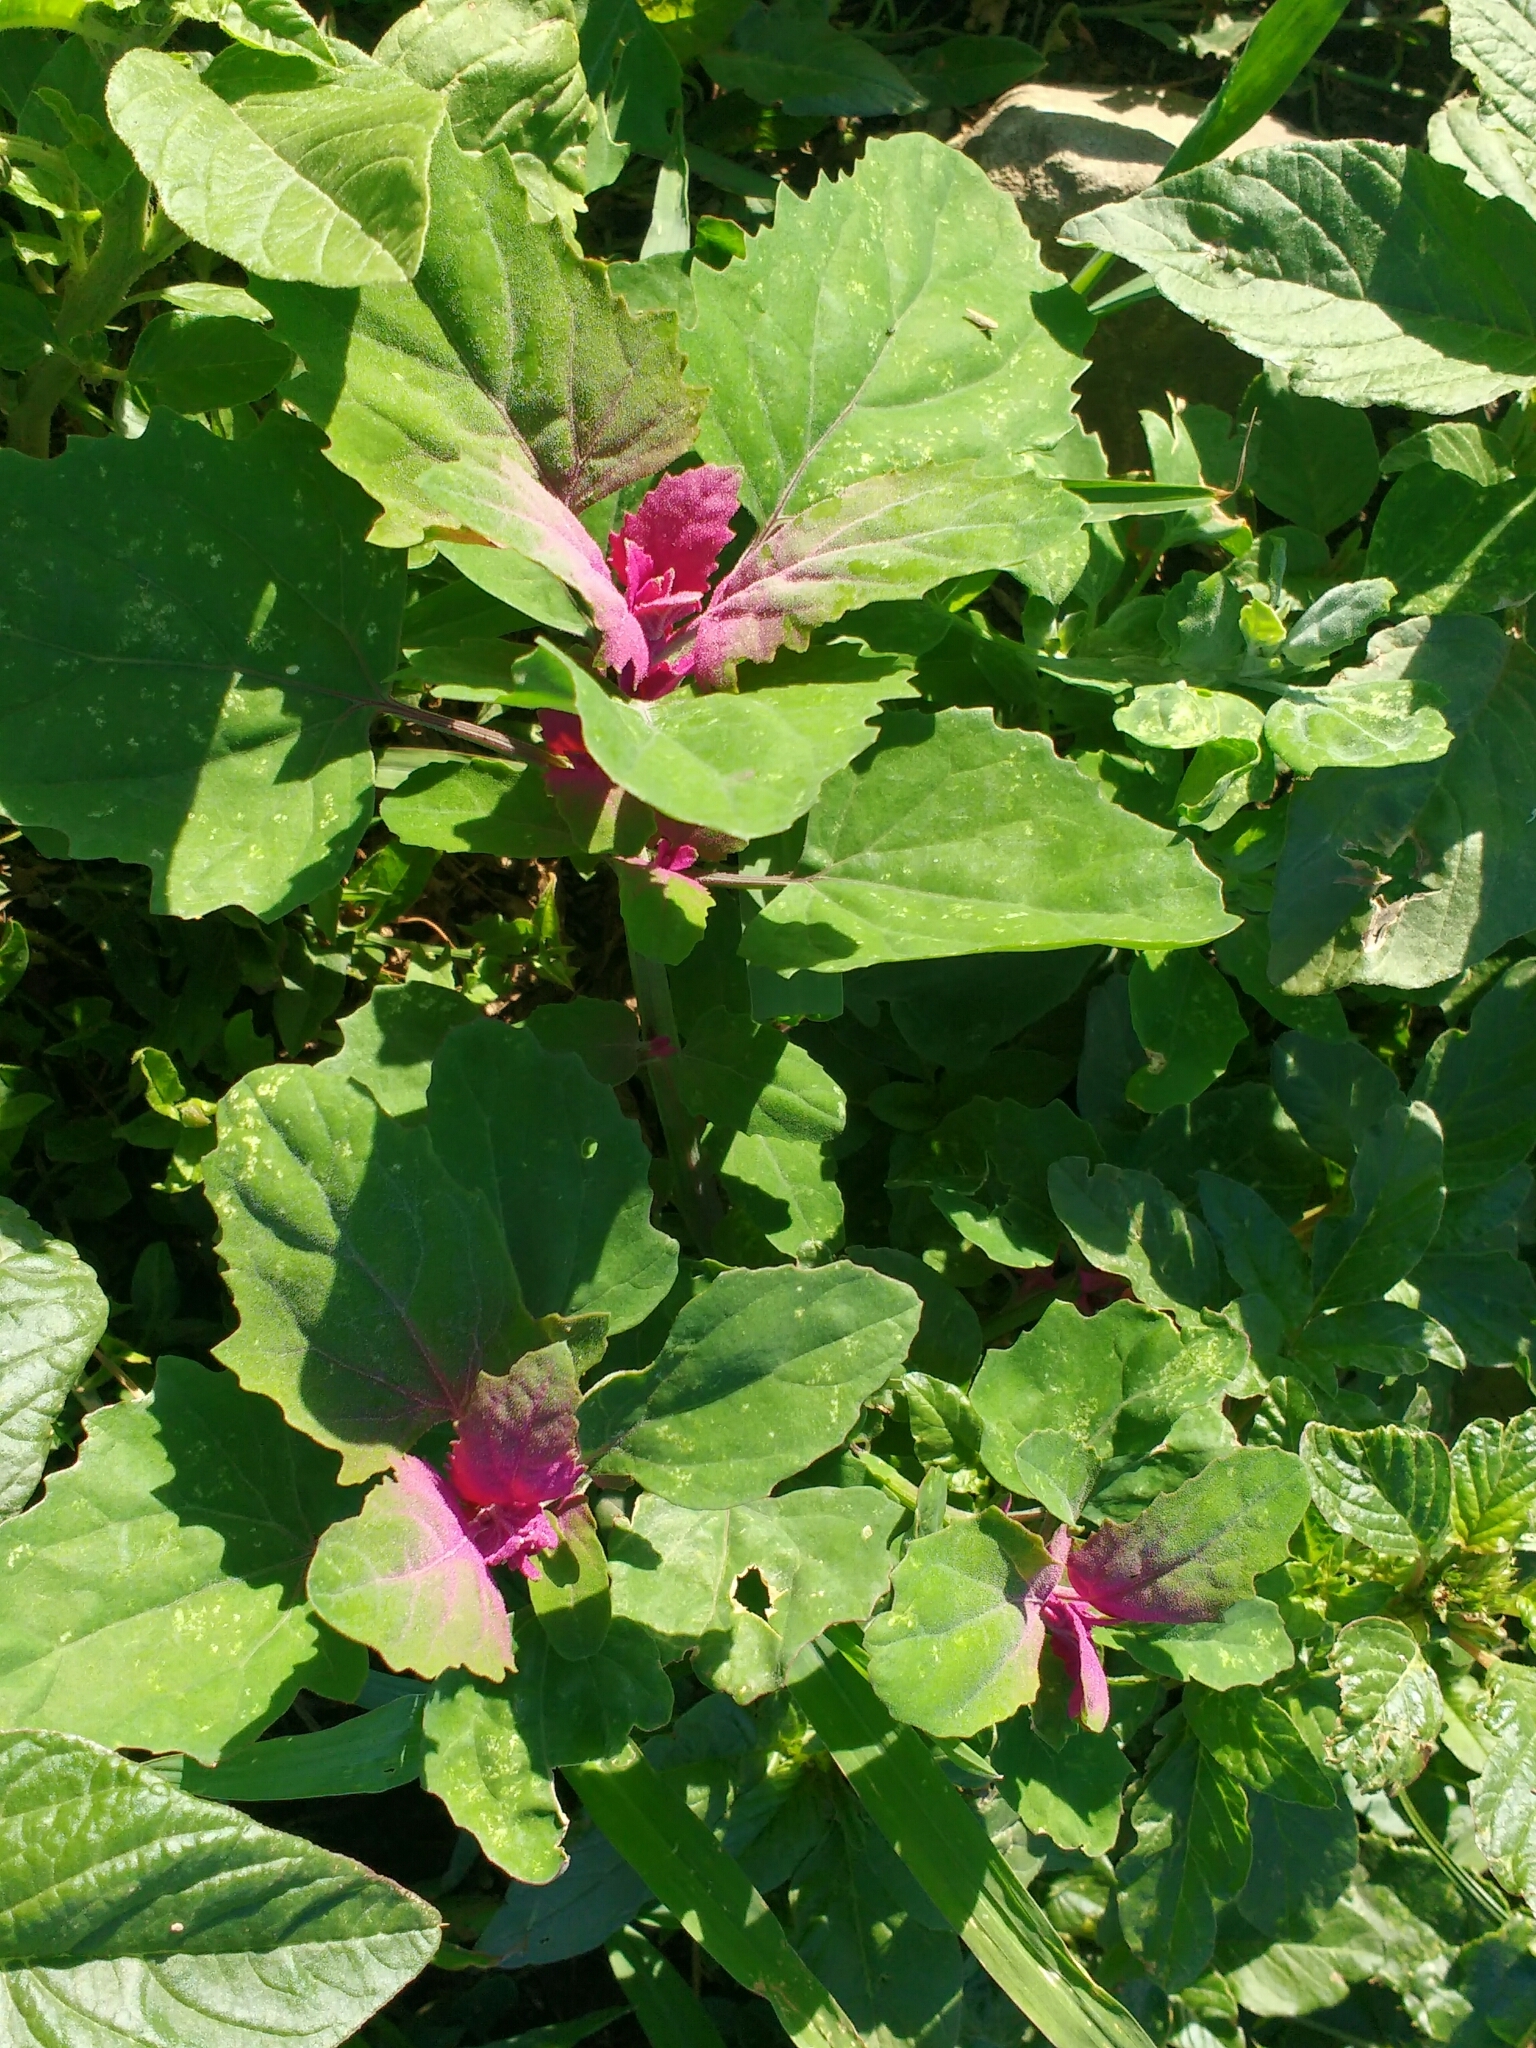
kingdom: Plantae
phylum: Tracheophyta
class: Magnoliopsida
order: Caryophyllales
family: Amaranthaceae
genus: Chenopodium
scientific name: Chenopodium giganteum
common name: Magentaspreen
